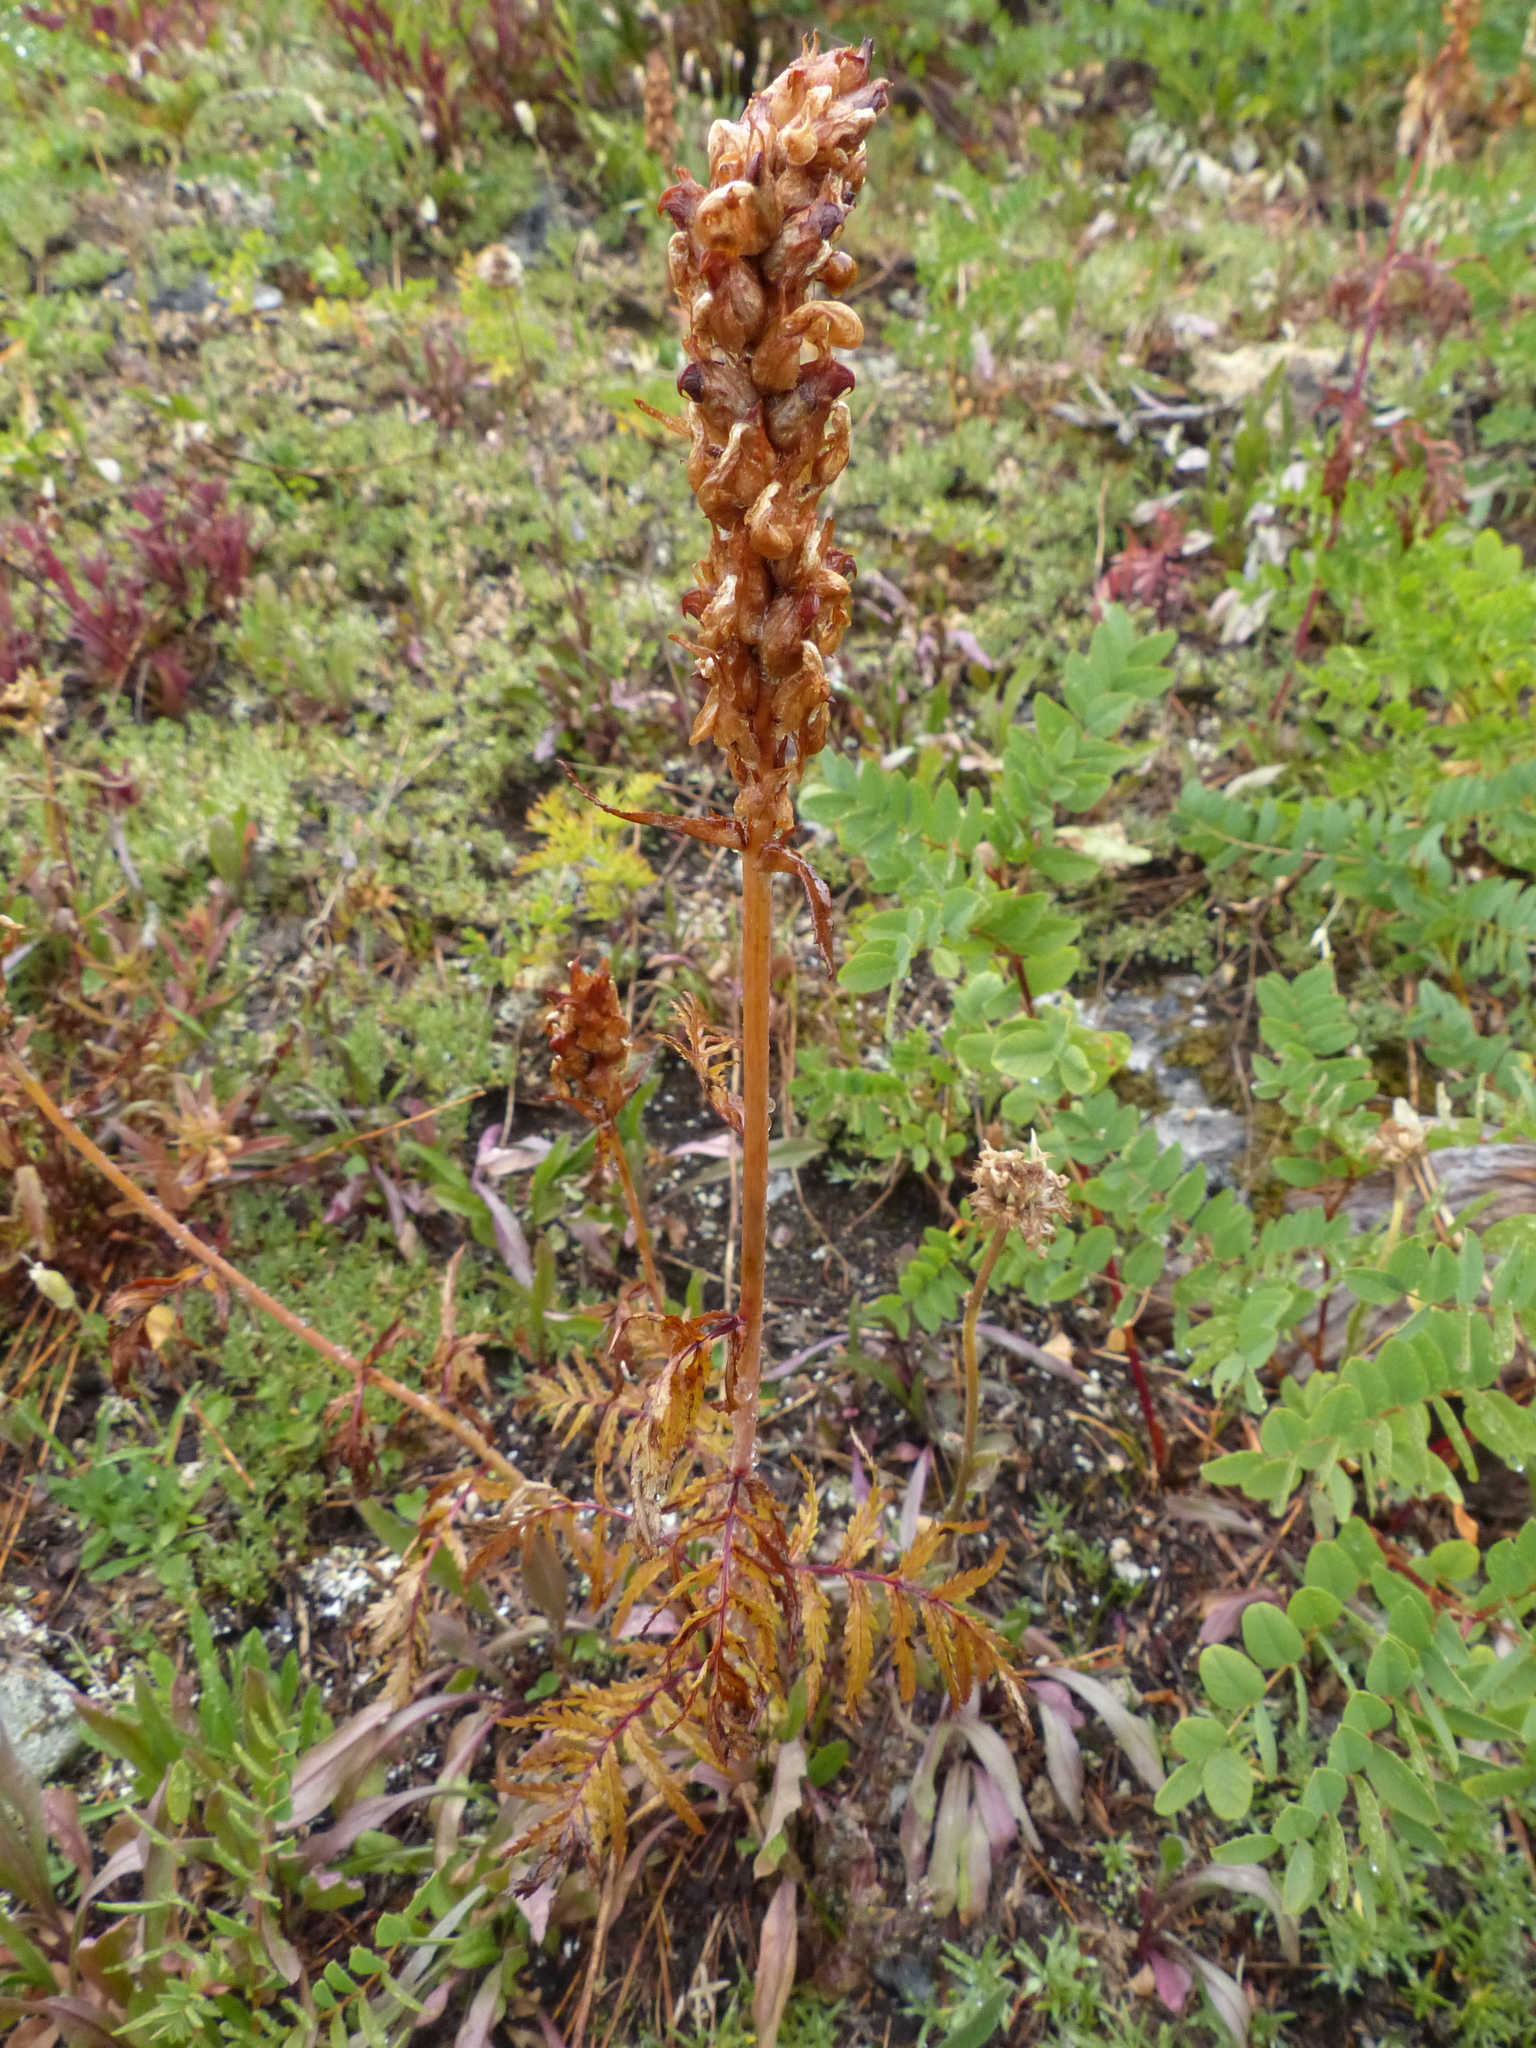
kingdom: Plantae
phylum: Tracheophyta
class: Magnoliopsida
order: Lamiales
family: Orobanchaceae
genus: Pedicularis
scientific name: Pedicularis bracteosa
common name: Bracted lousewort
